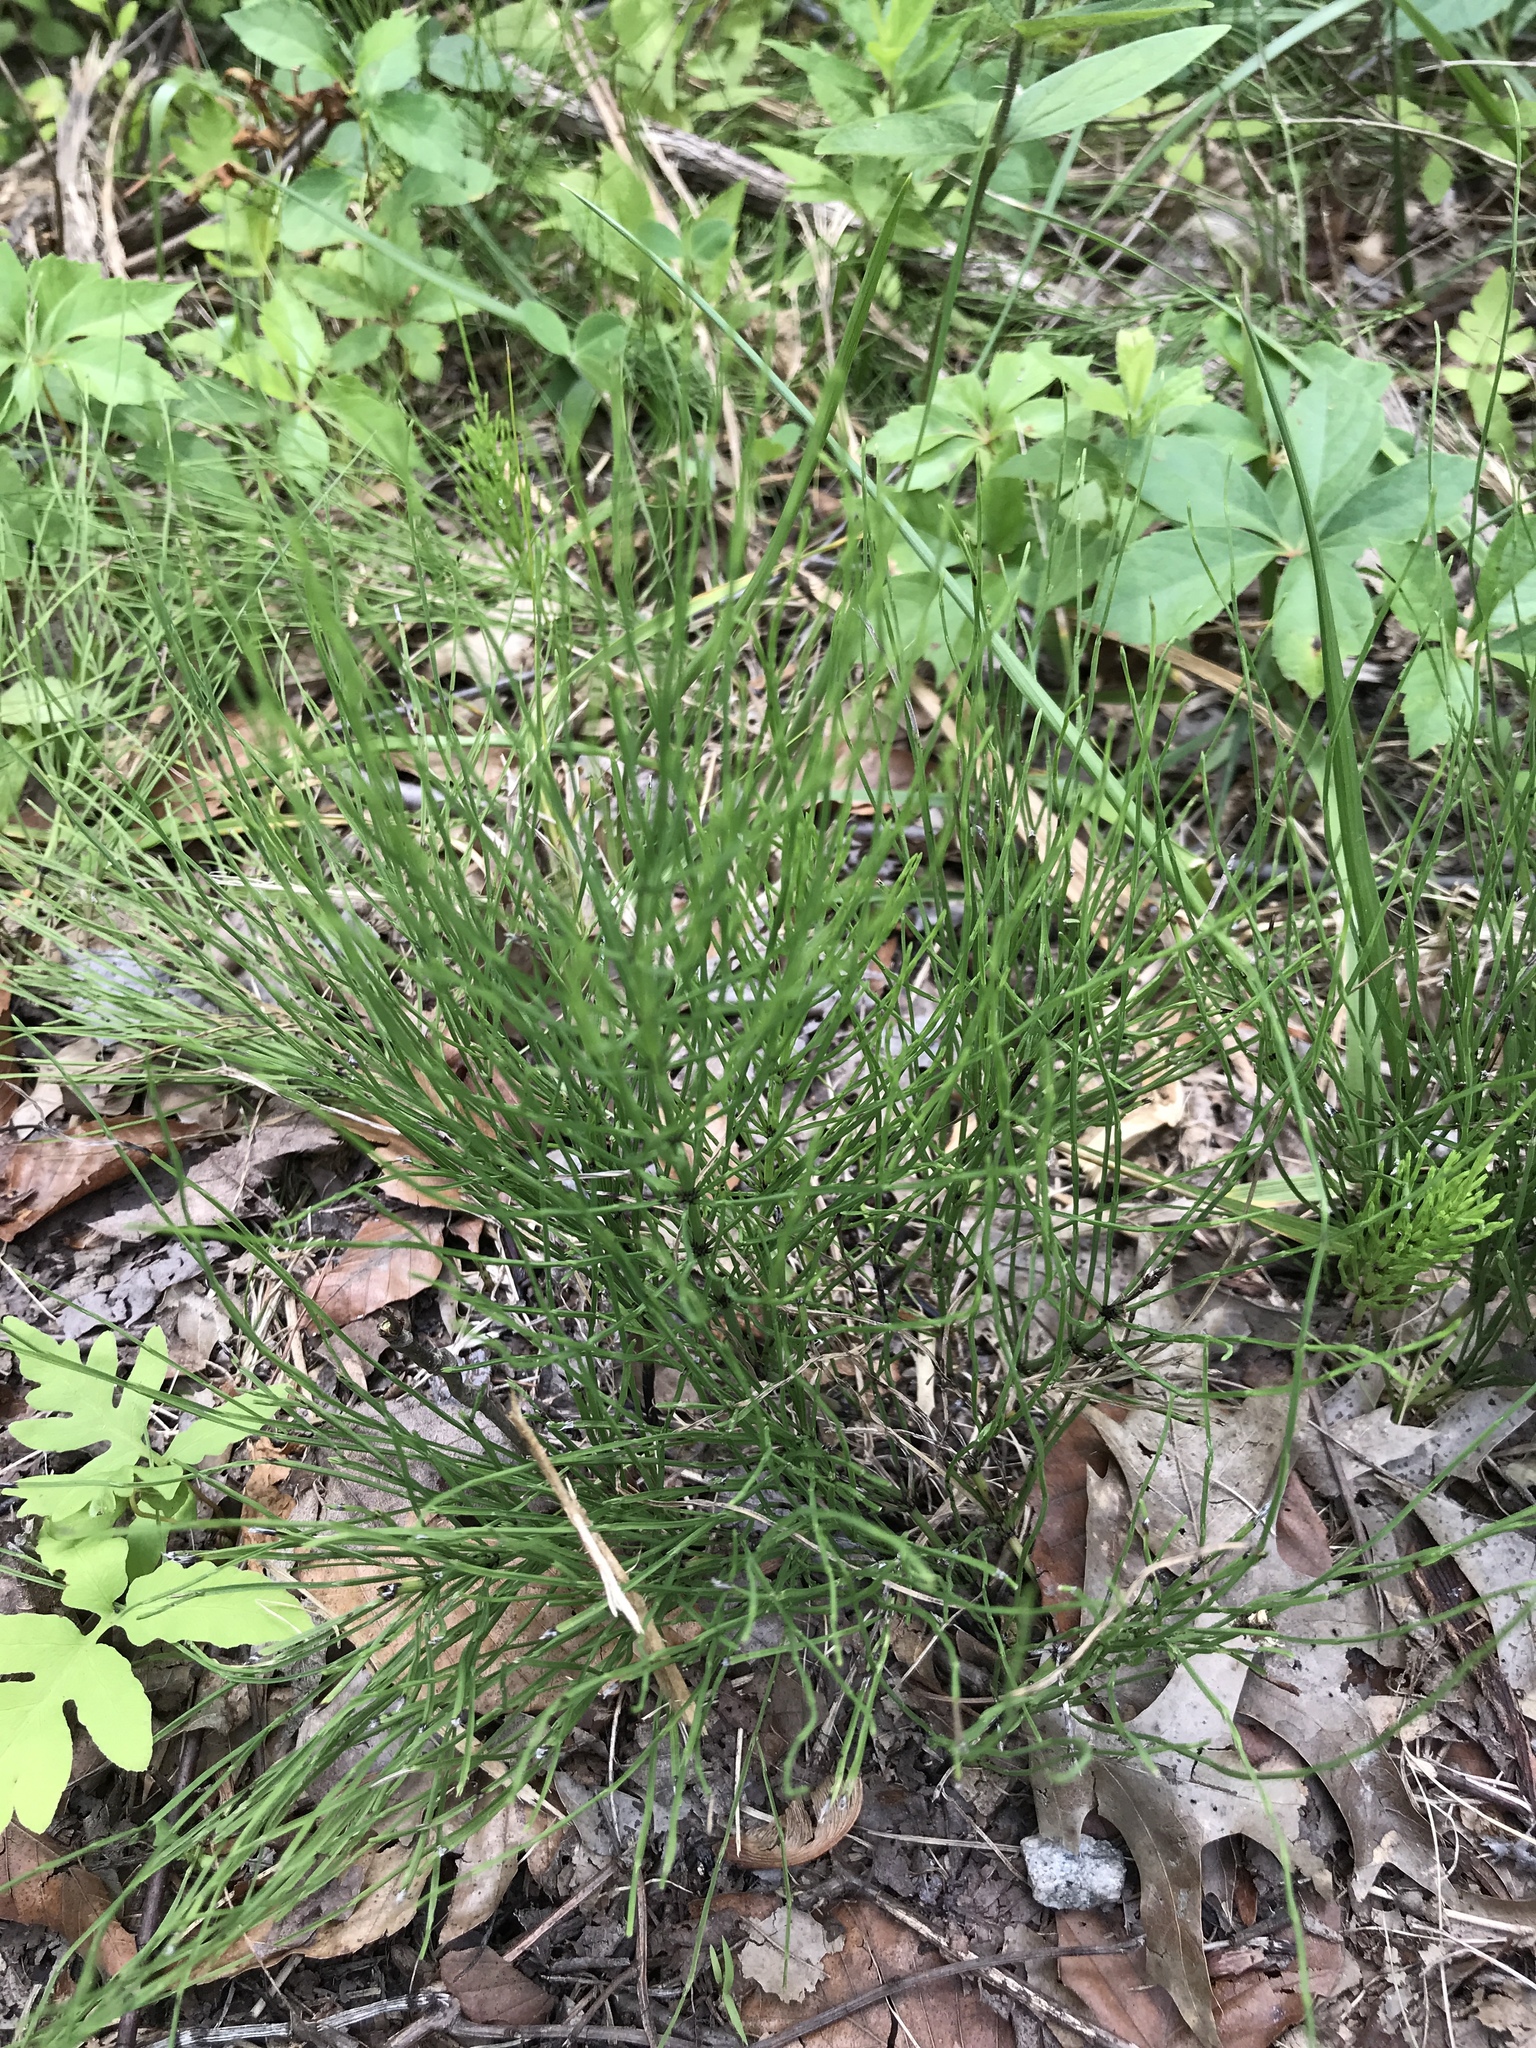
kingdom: Plantae
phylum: Tracheophyta
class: Polypodiopsida
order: Equisetales
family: Equisetaceae
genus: Equisetum
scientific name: Equisetum arvense
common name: Field horsetail
